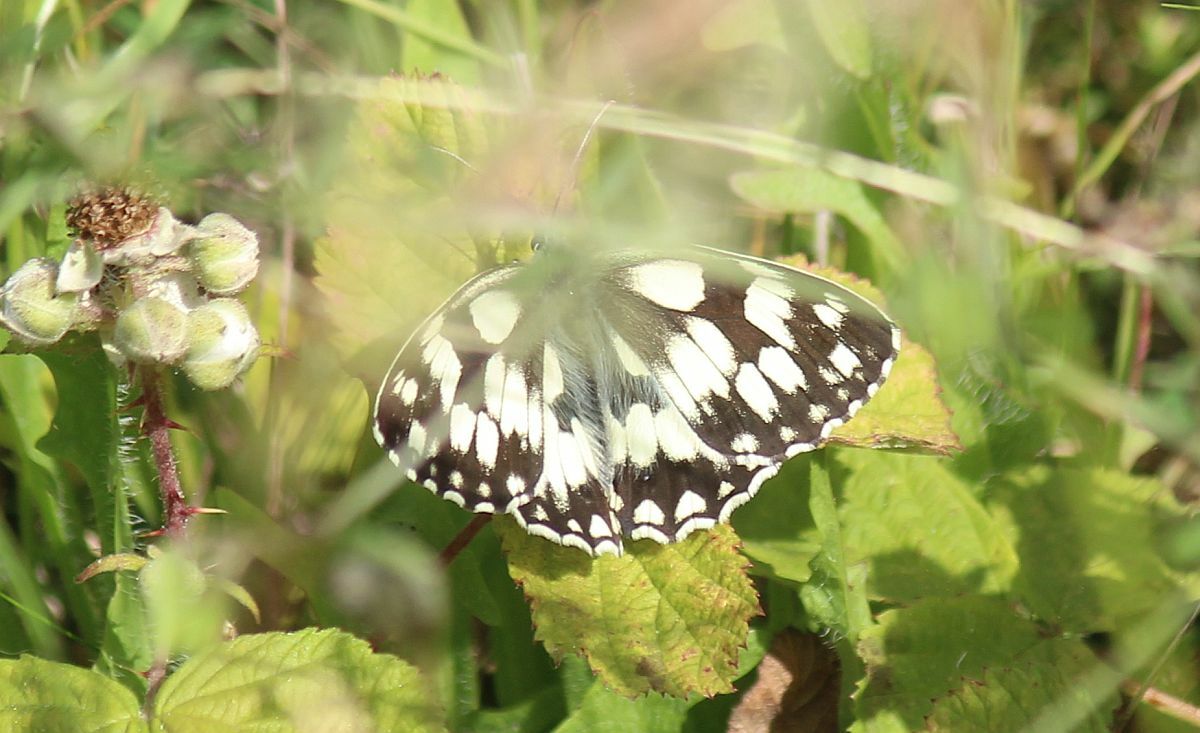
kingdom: Animalia
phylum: Arthropoda
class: Insecta
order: Lepidoptera
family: Nymphalidae
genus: Melanargia
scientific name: Melanargia galathea
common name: Marbled white
